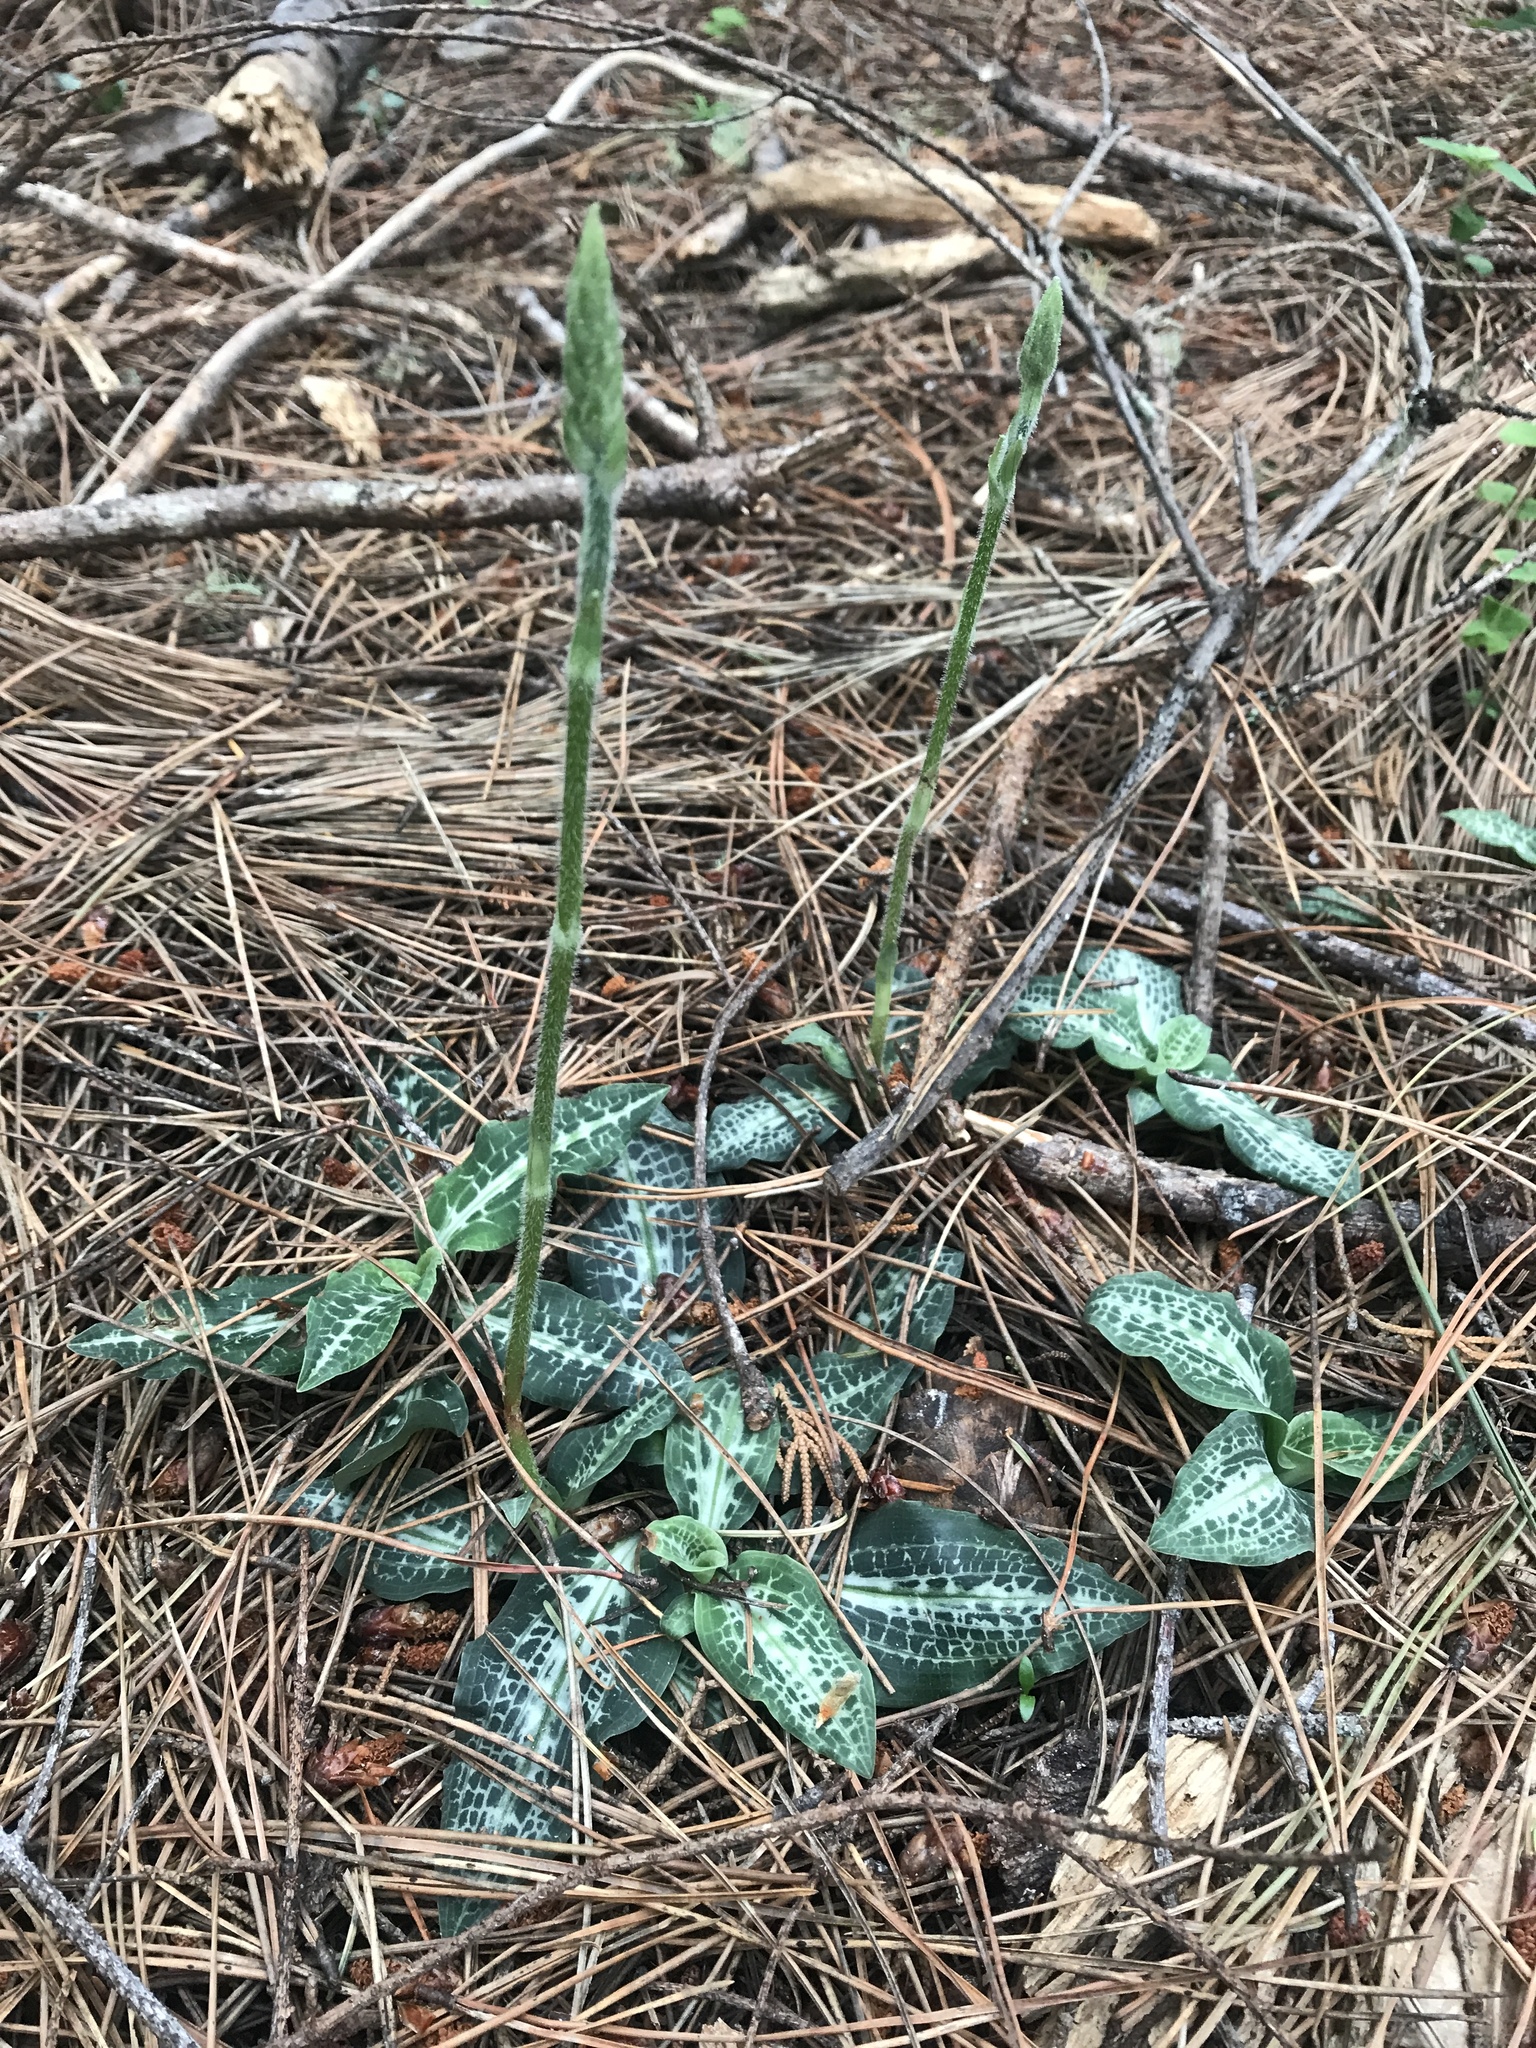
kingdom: Plantae
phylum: Tracheophyta
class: Liliopsida
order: Asparagales
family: Orchidaceae
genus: Goodyera
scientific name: Goodyera oblongifolia
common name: Giant rattlesnake-plantain
